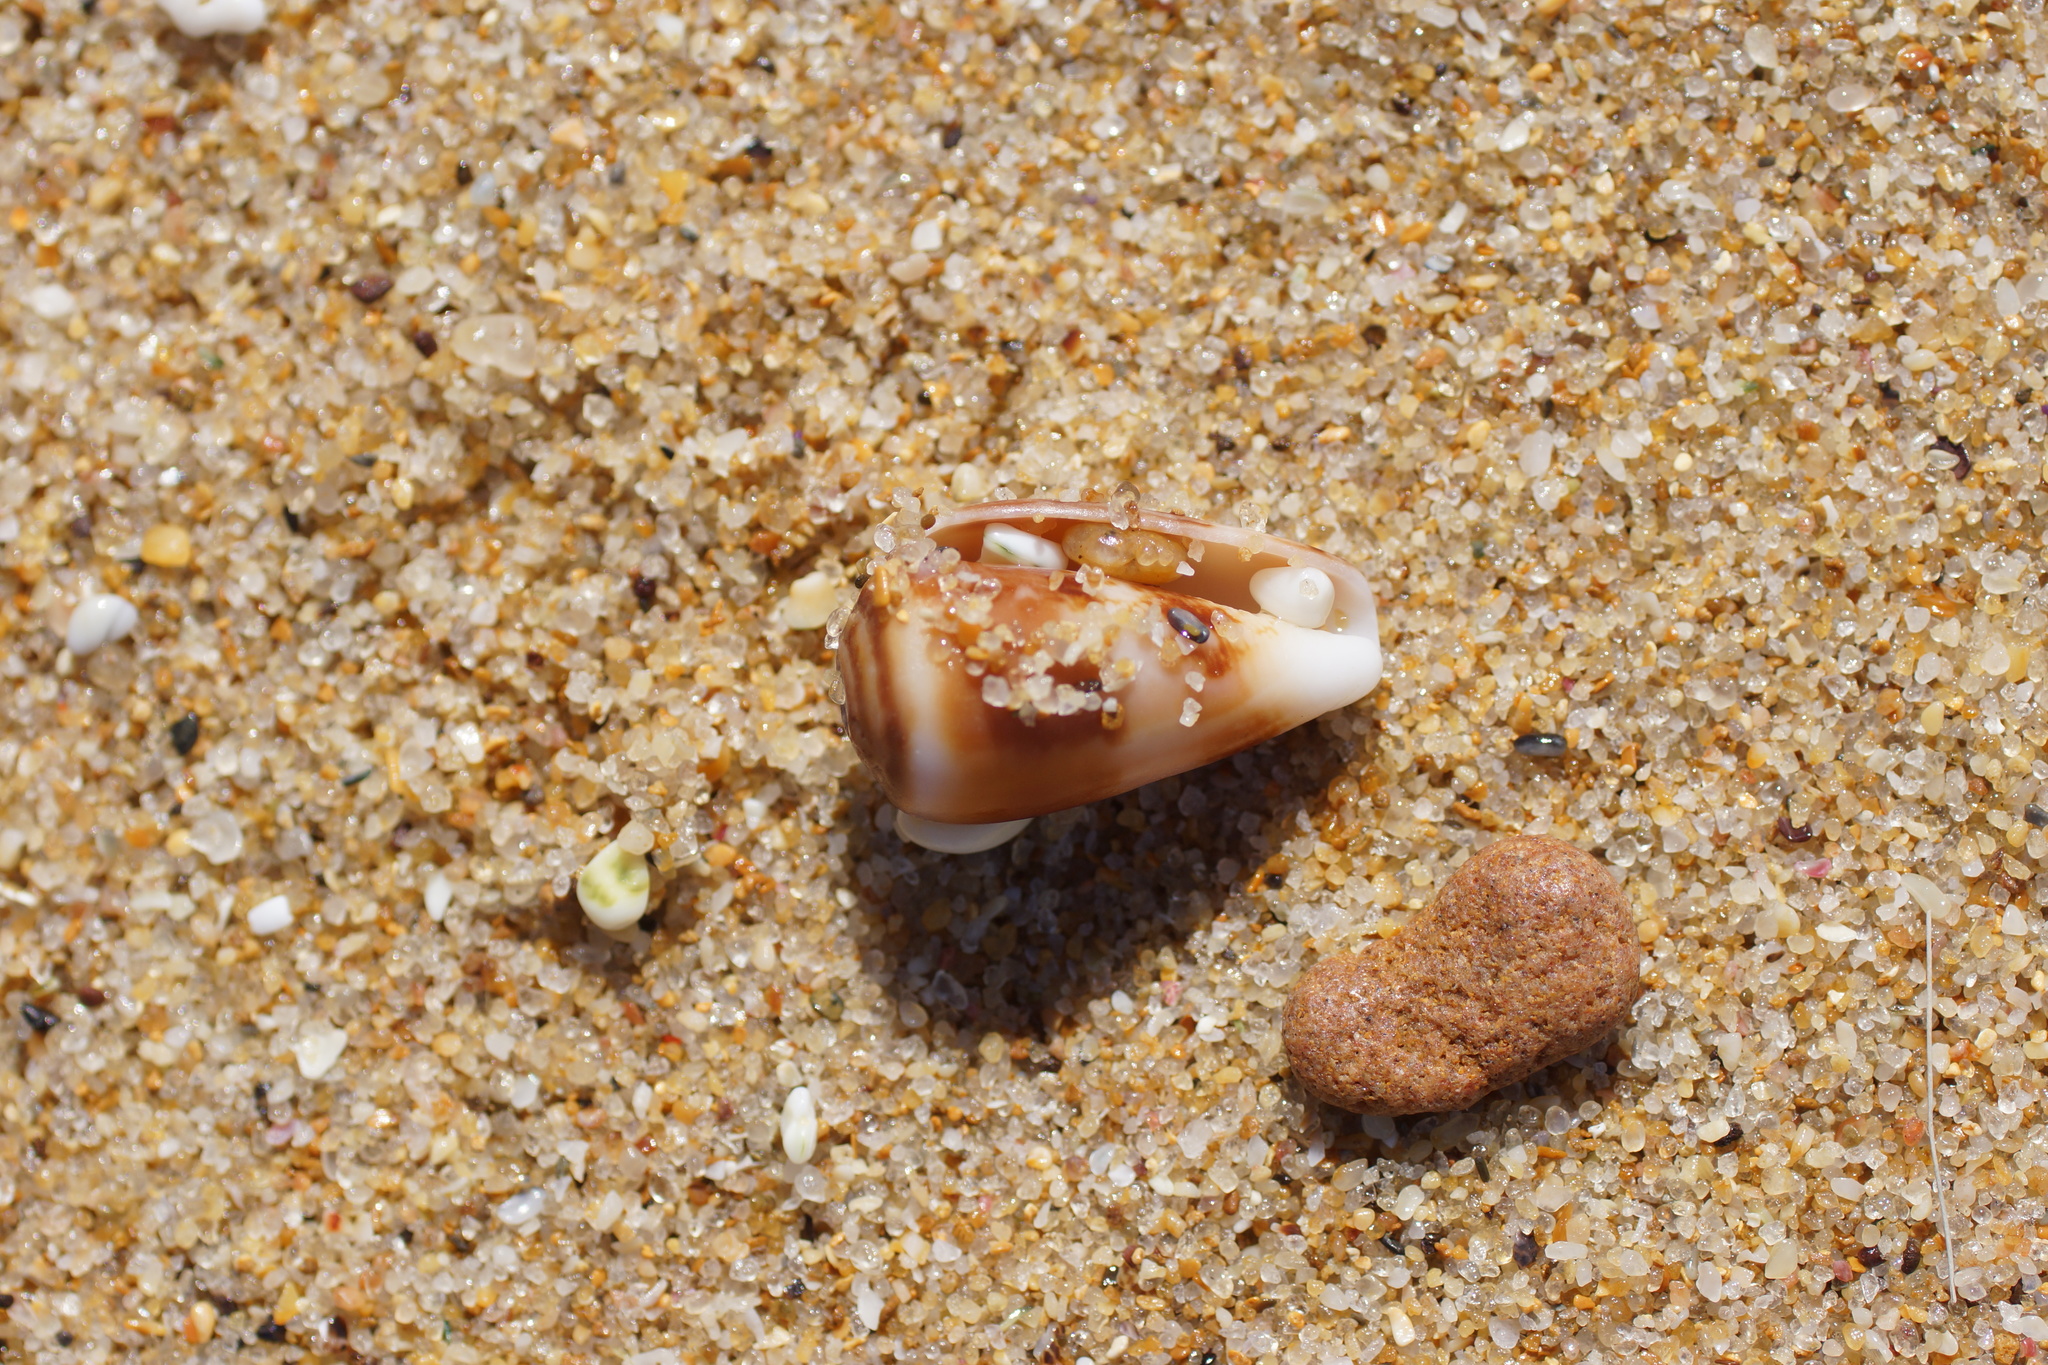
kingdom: Animalia
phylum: Mollusca
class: Gastropoda
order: Neogastropoda
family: Conidae
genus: Conus
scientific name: Conus anemone
